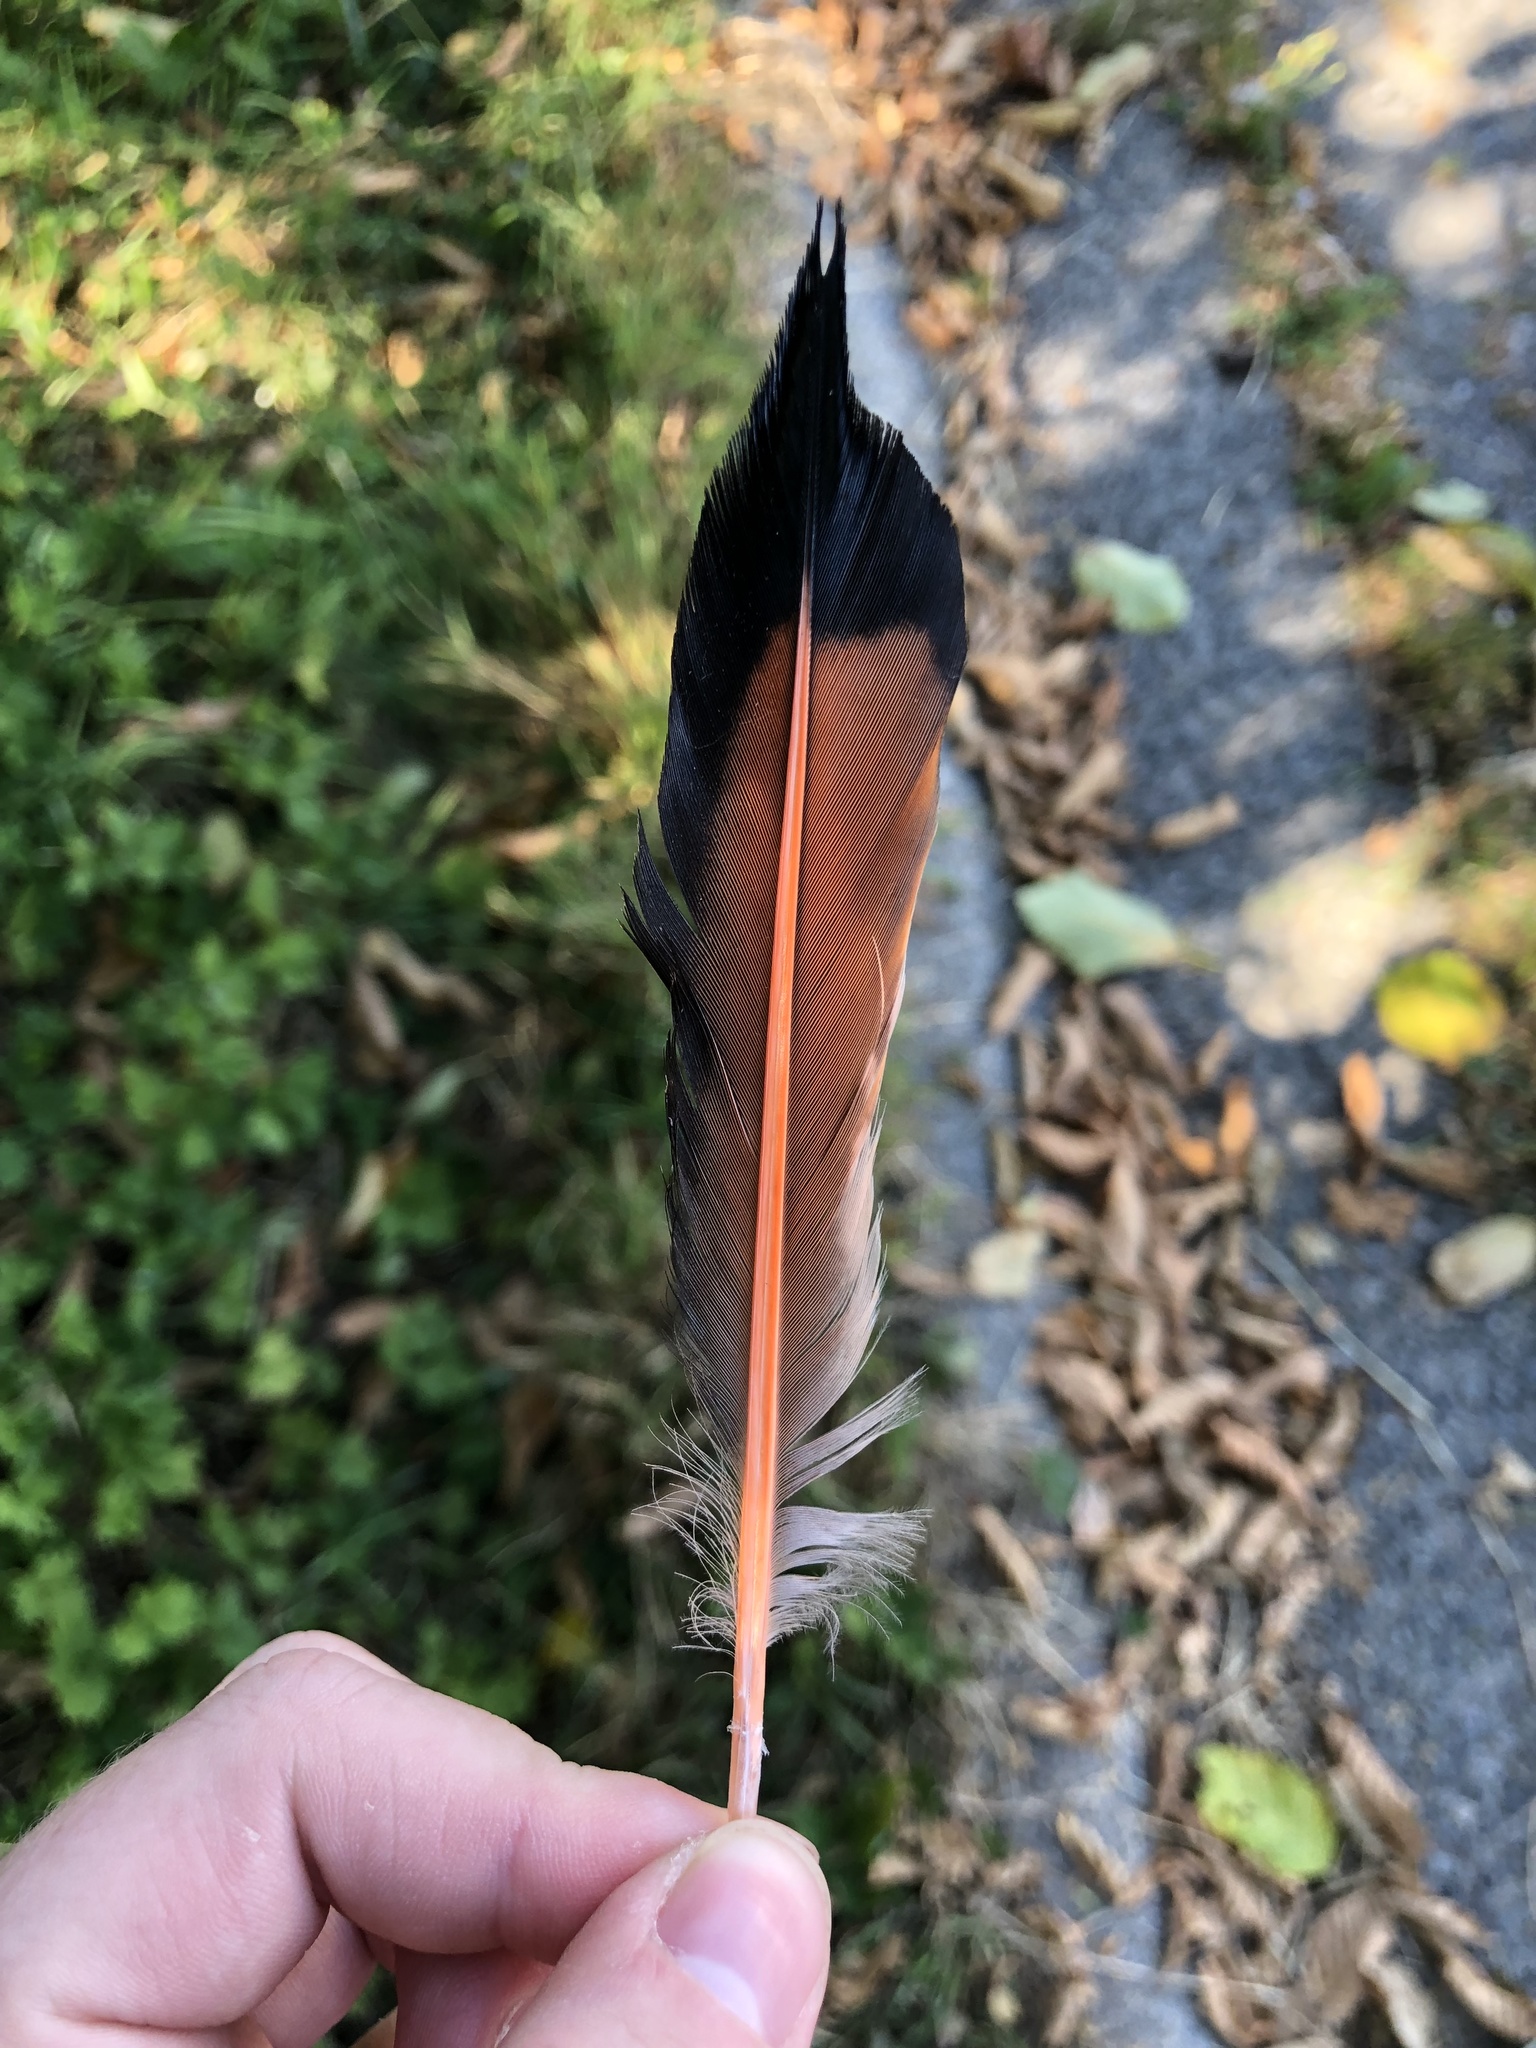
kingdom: Animalia
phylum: Chordata
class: Aves
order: Piciformes
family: Picidae
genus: Colaptes
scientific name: Colaptes auratus
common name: Northern flicker
